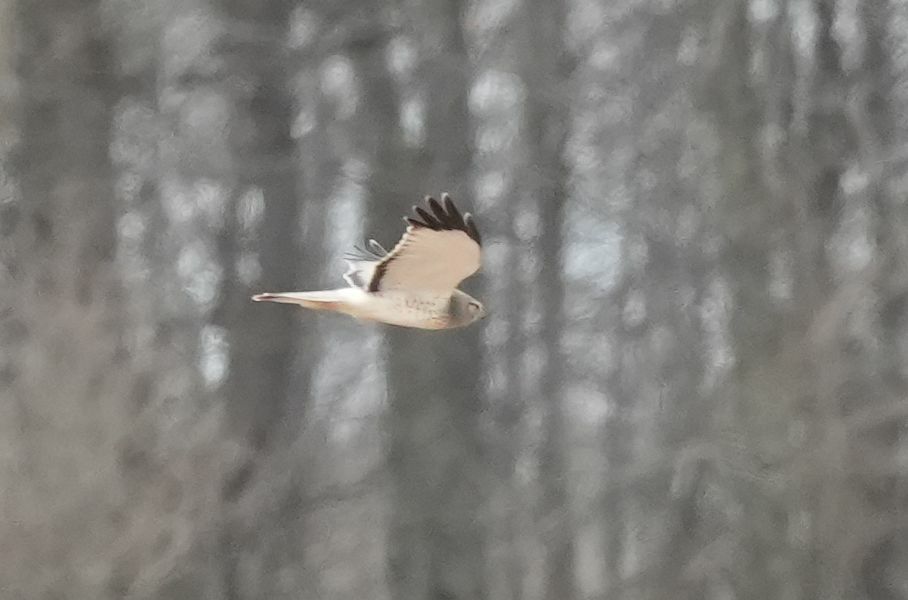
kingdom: Animalia
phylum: Chordata
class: Aves
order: Accipitriformes
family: Accipitridae
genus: Circus
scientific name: Circus cyaneus
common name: Hen harrier
